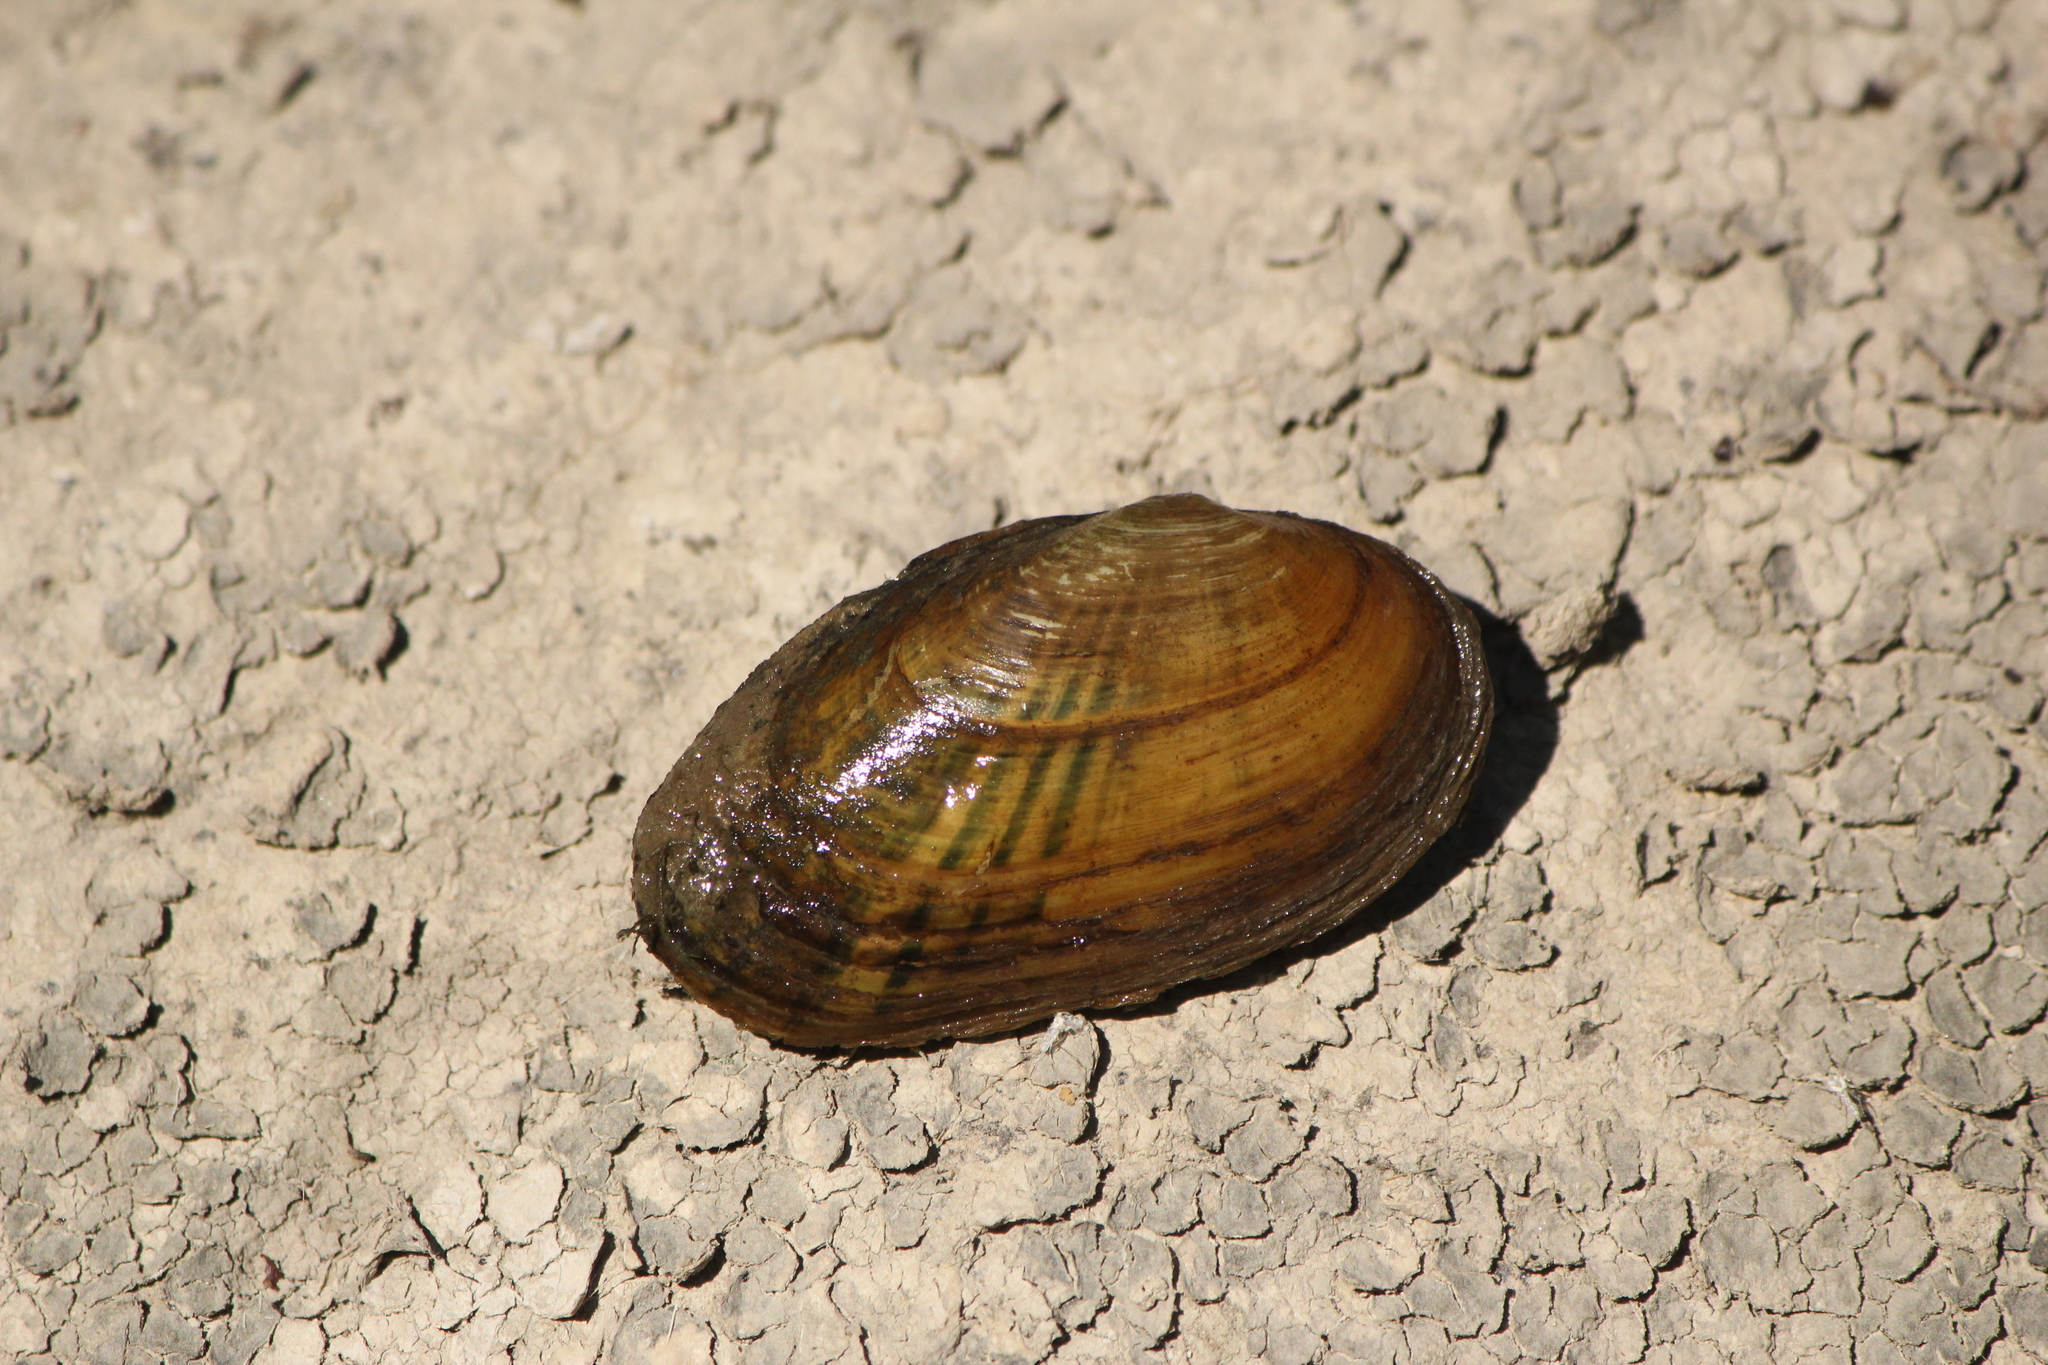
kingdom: Animalia
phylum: Mollusca
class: Bivalvia
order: Unionida
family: Unionidae
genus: Cambarunio
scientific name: Cambarunio iris
